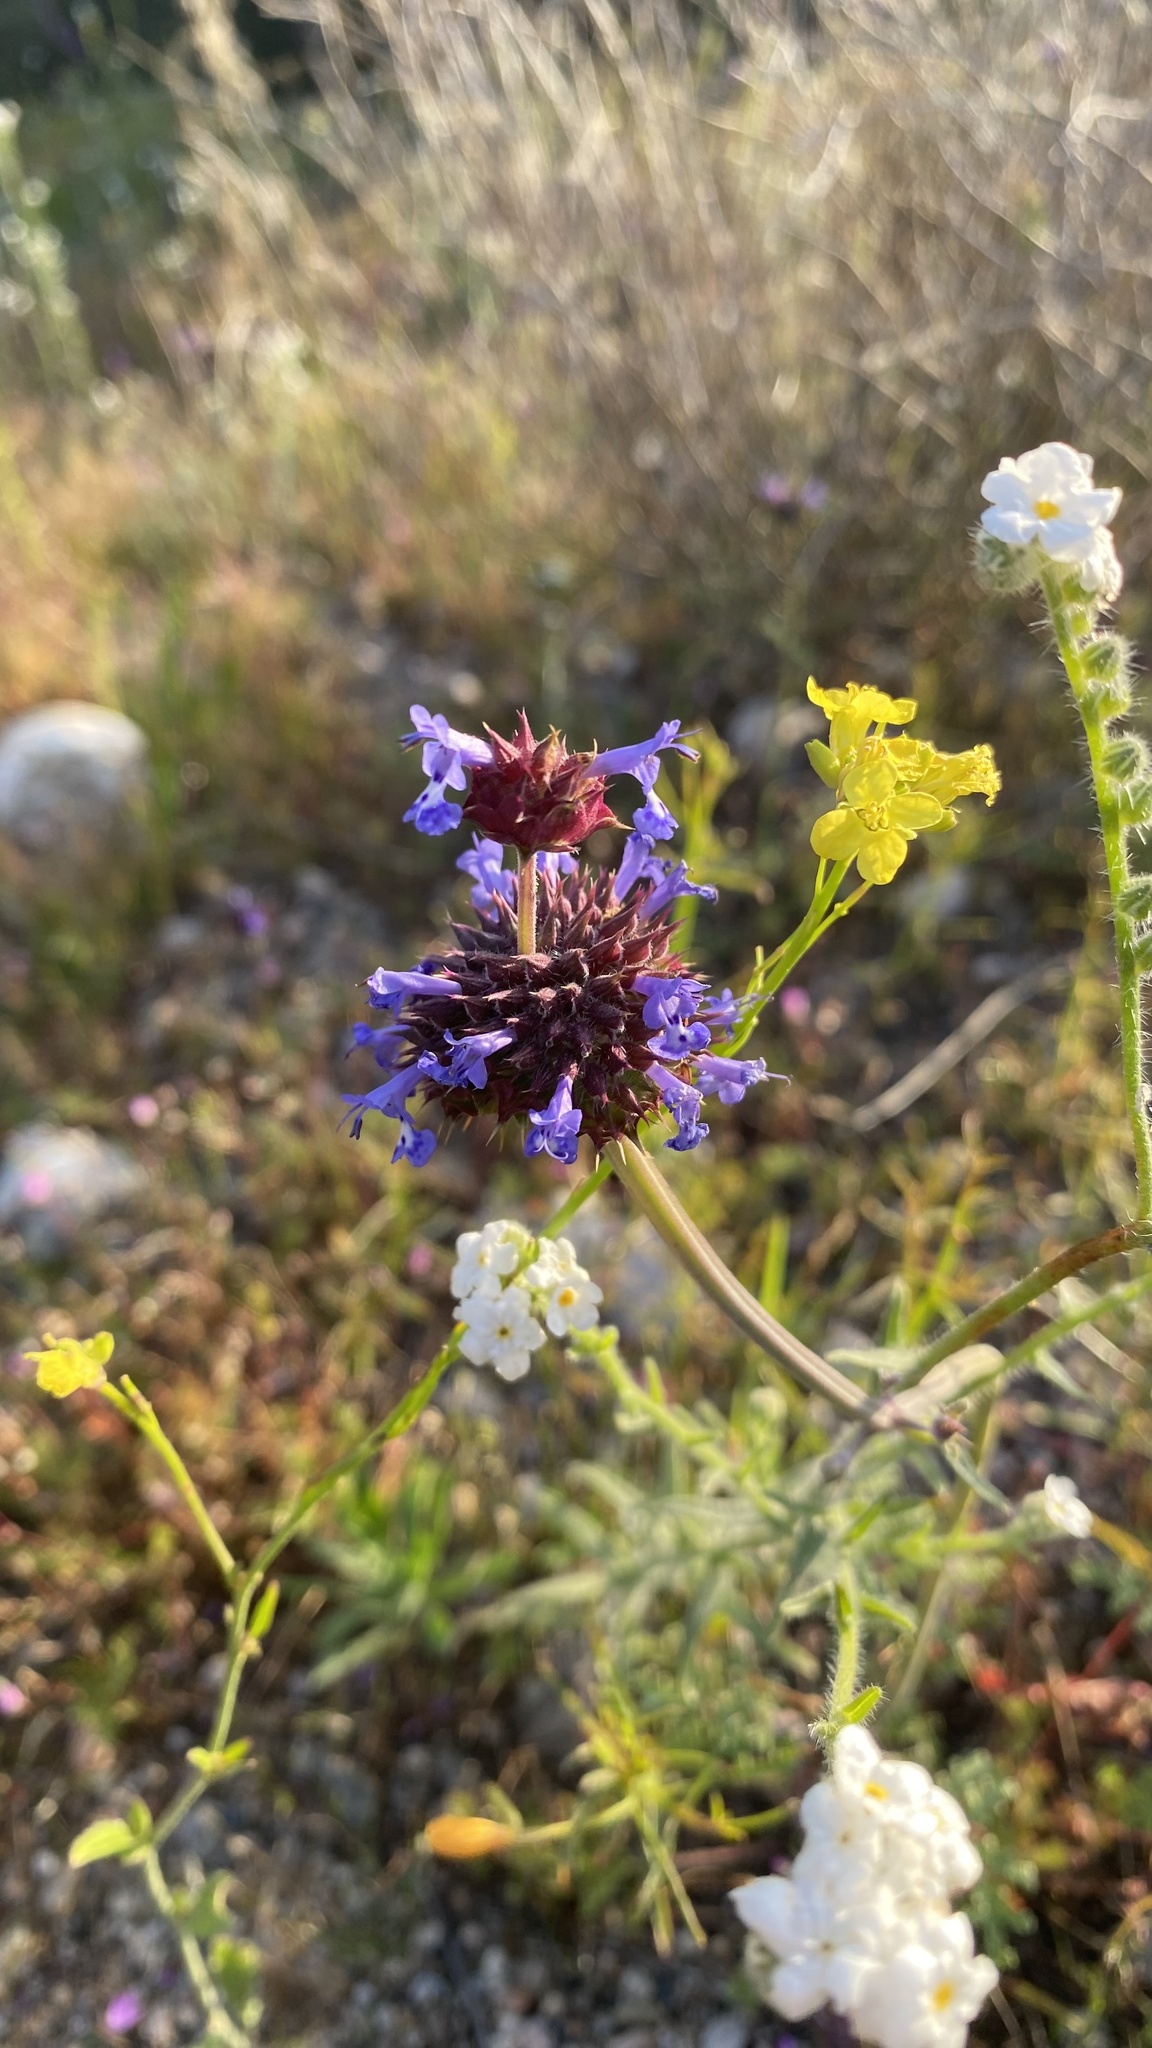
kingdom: Plantae
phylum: Tracheophyta
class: Magnoliopsida
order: Lamiales
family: Lamiaceae
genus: Salvia
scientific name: Salvia columbariae
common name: Chia
